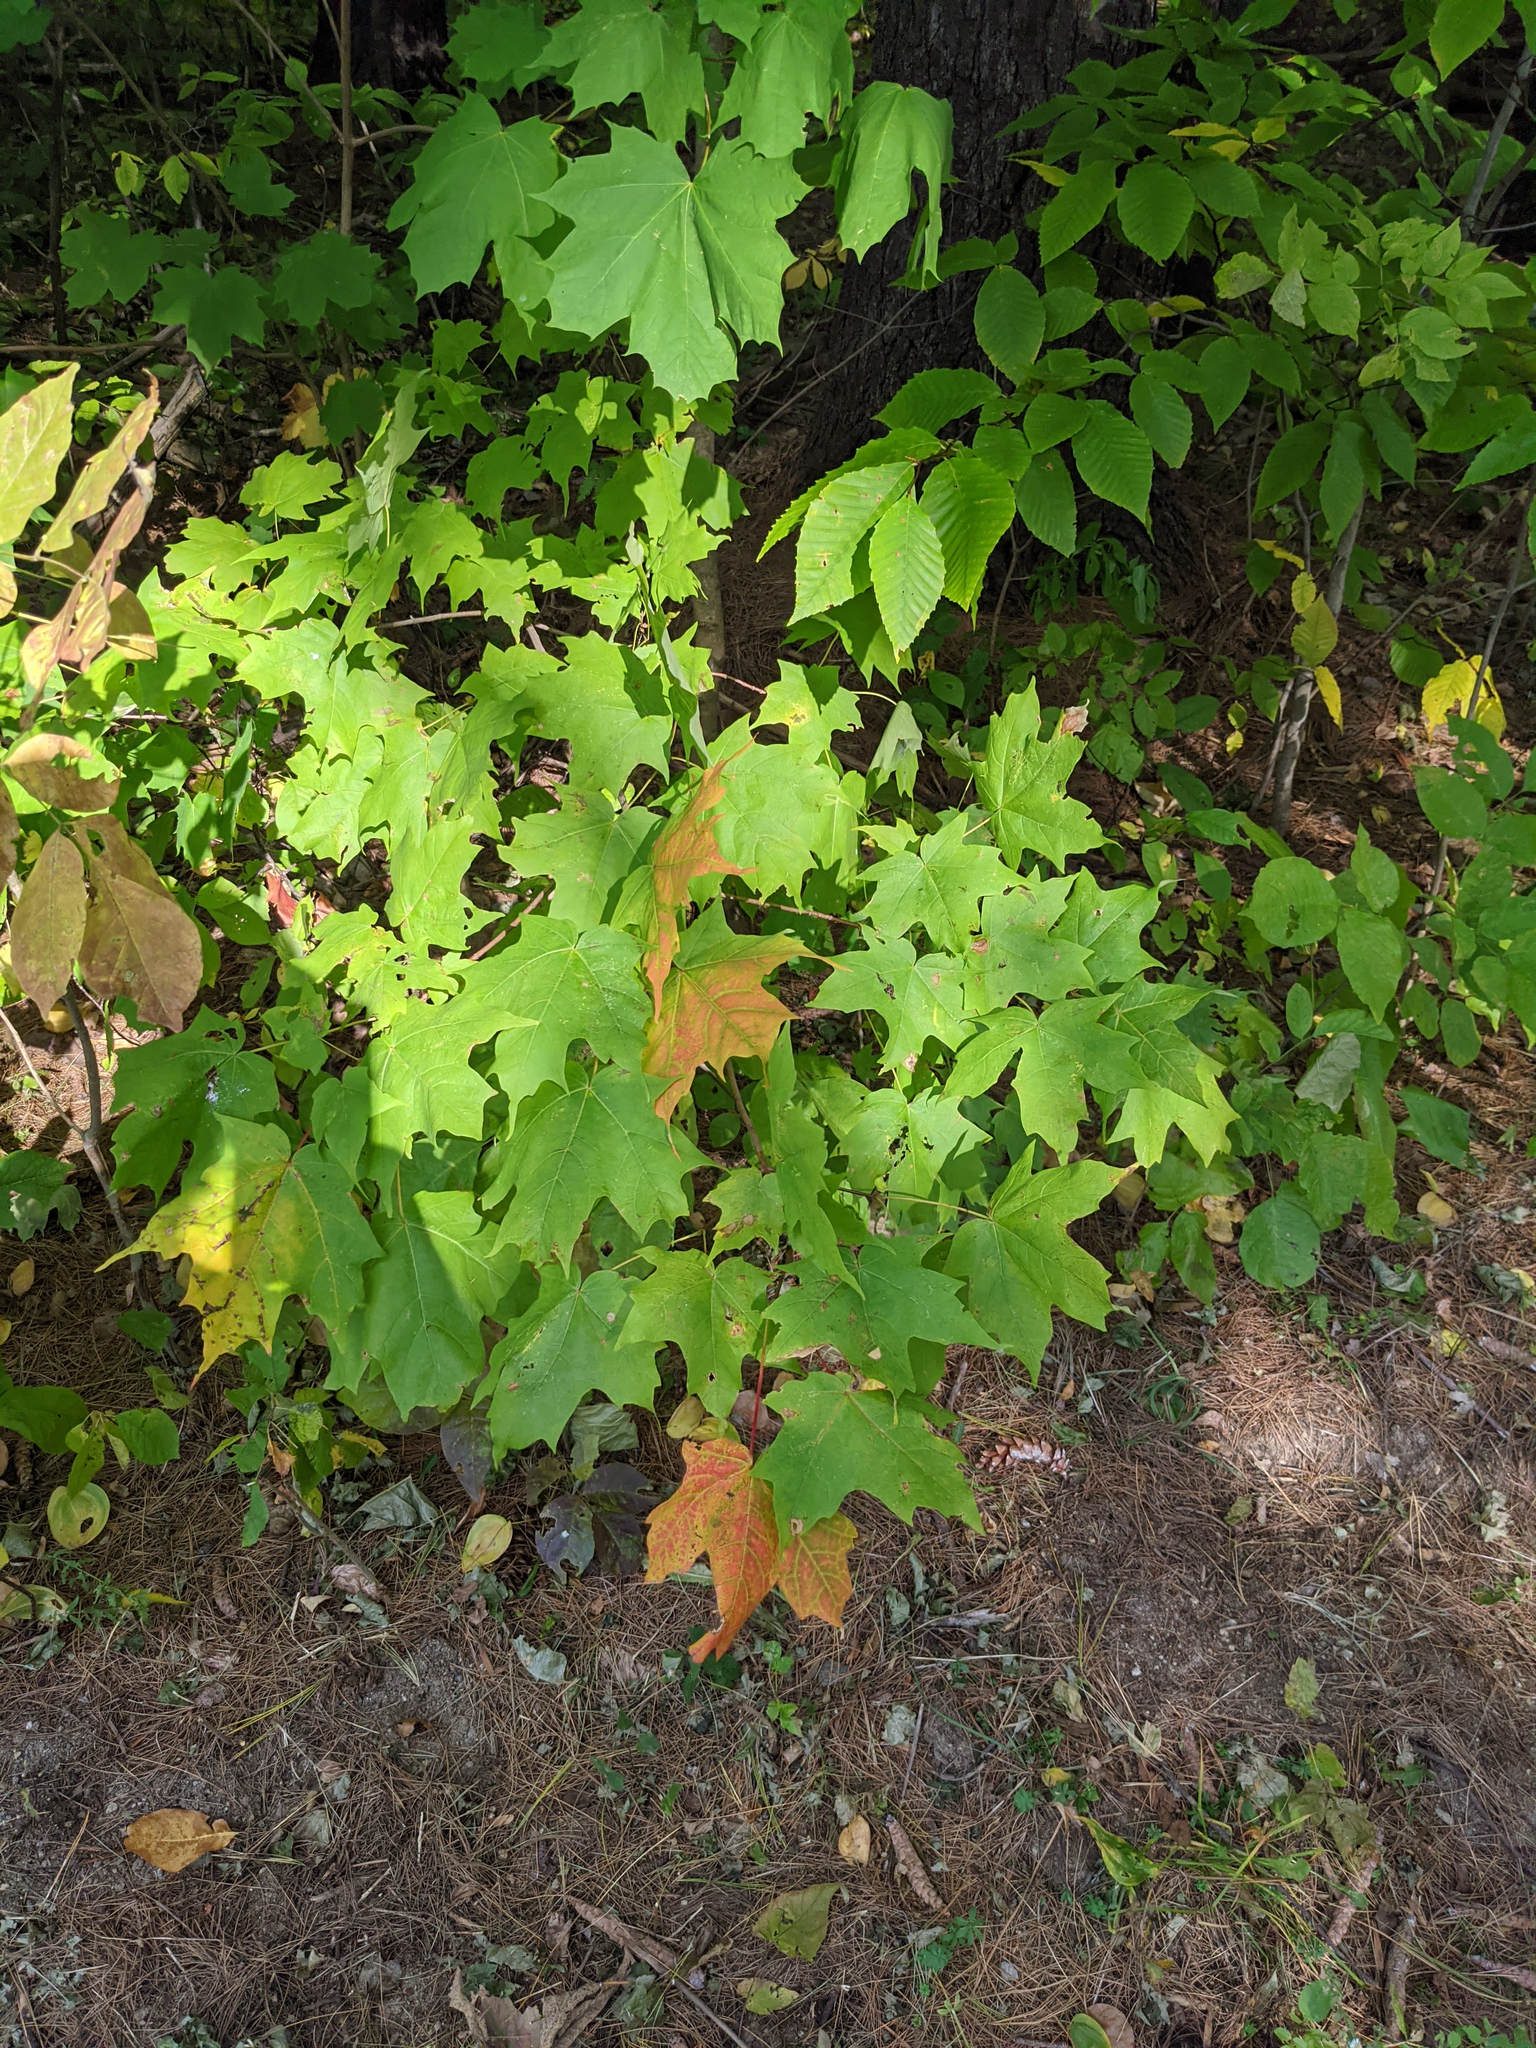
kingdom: Plantae
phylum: Tracheophyta
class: Magnoliopsida
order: Sapindales
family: Sapindaceae
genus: Acer
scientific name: Acer saccharum
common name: Sugar maple
